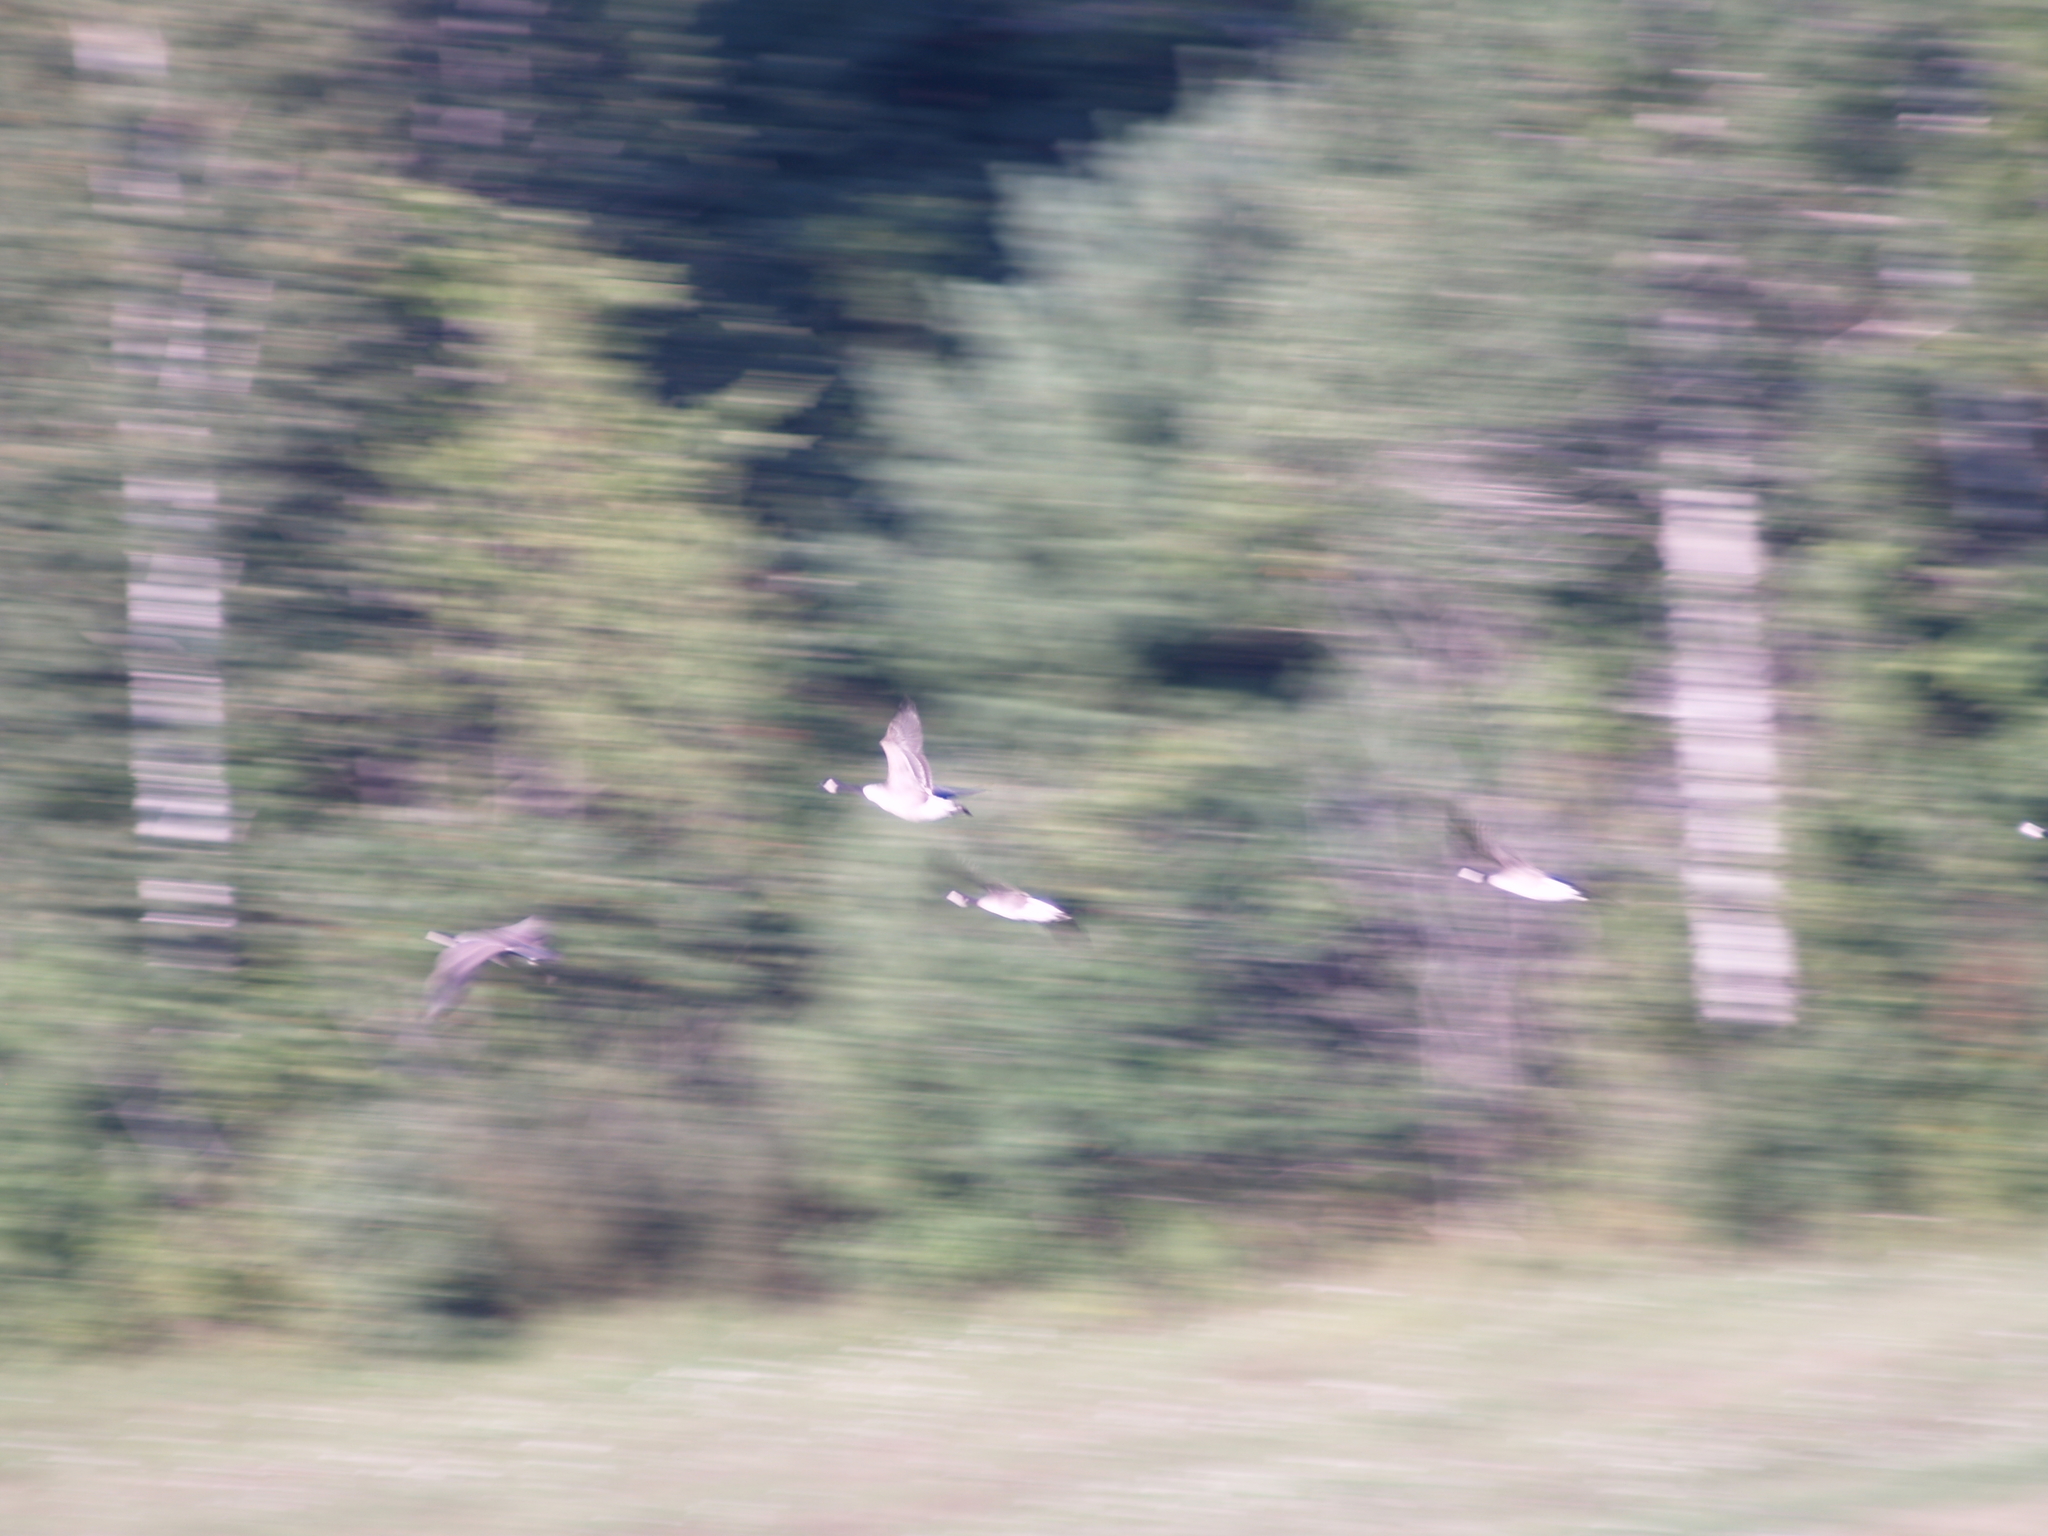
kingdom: Animalia
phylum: Chordata
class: Aves
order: Anseriformes
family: Anatidae
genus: Branta
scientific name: Branta canadensis
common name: Canada goose
